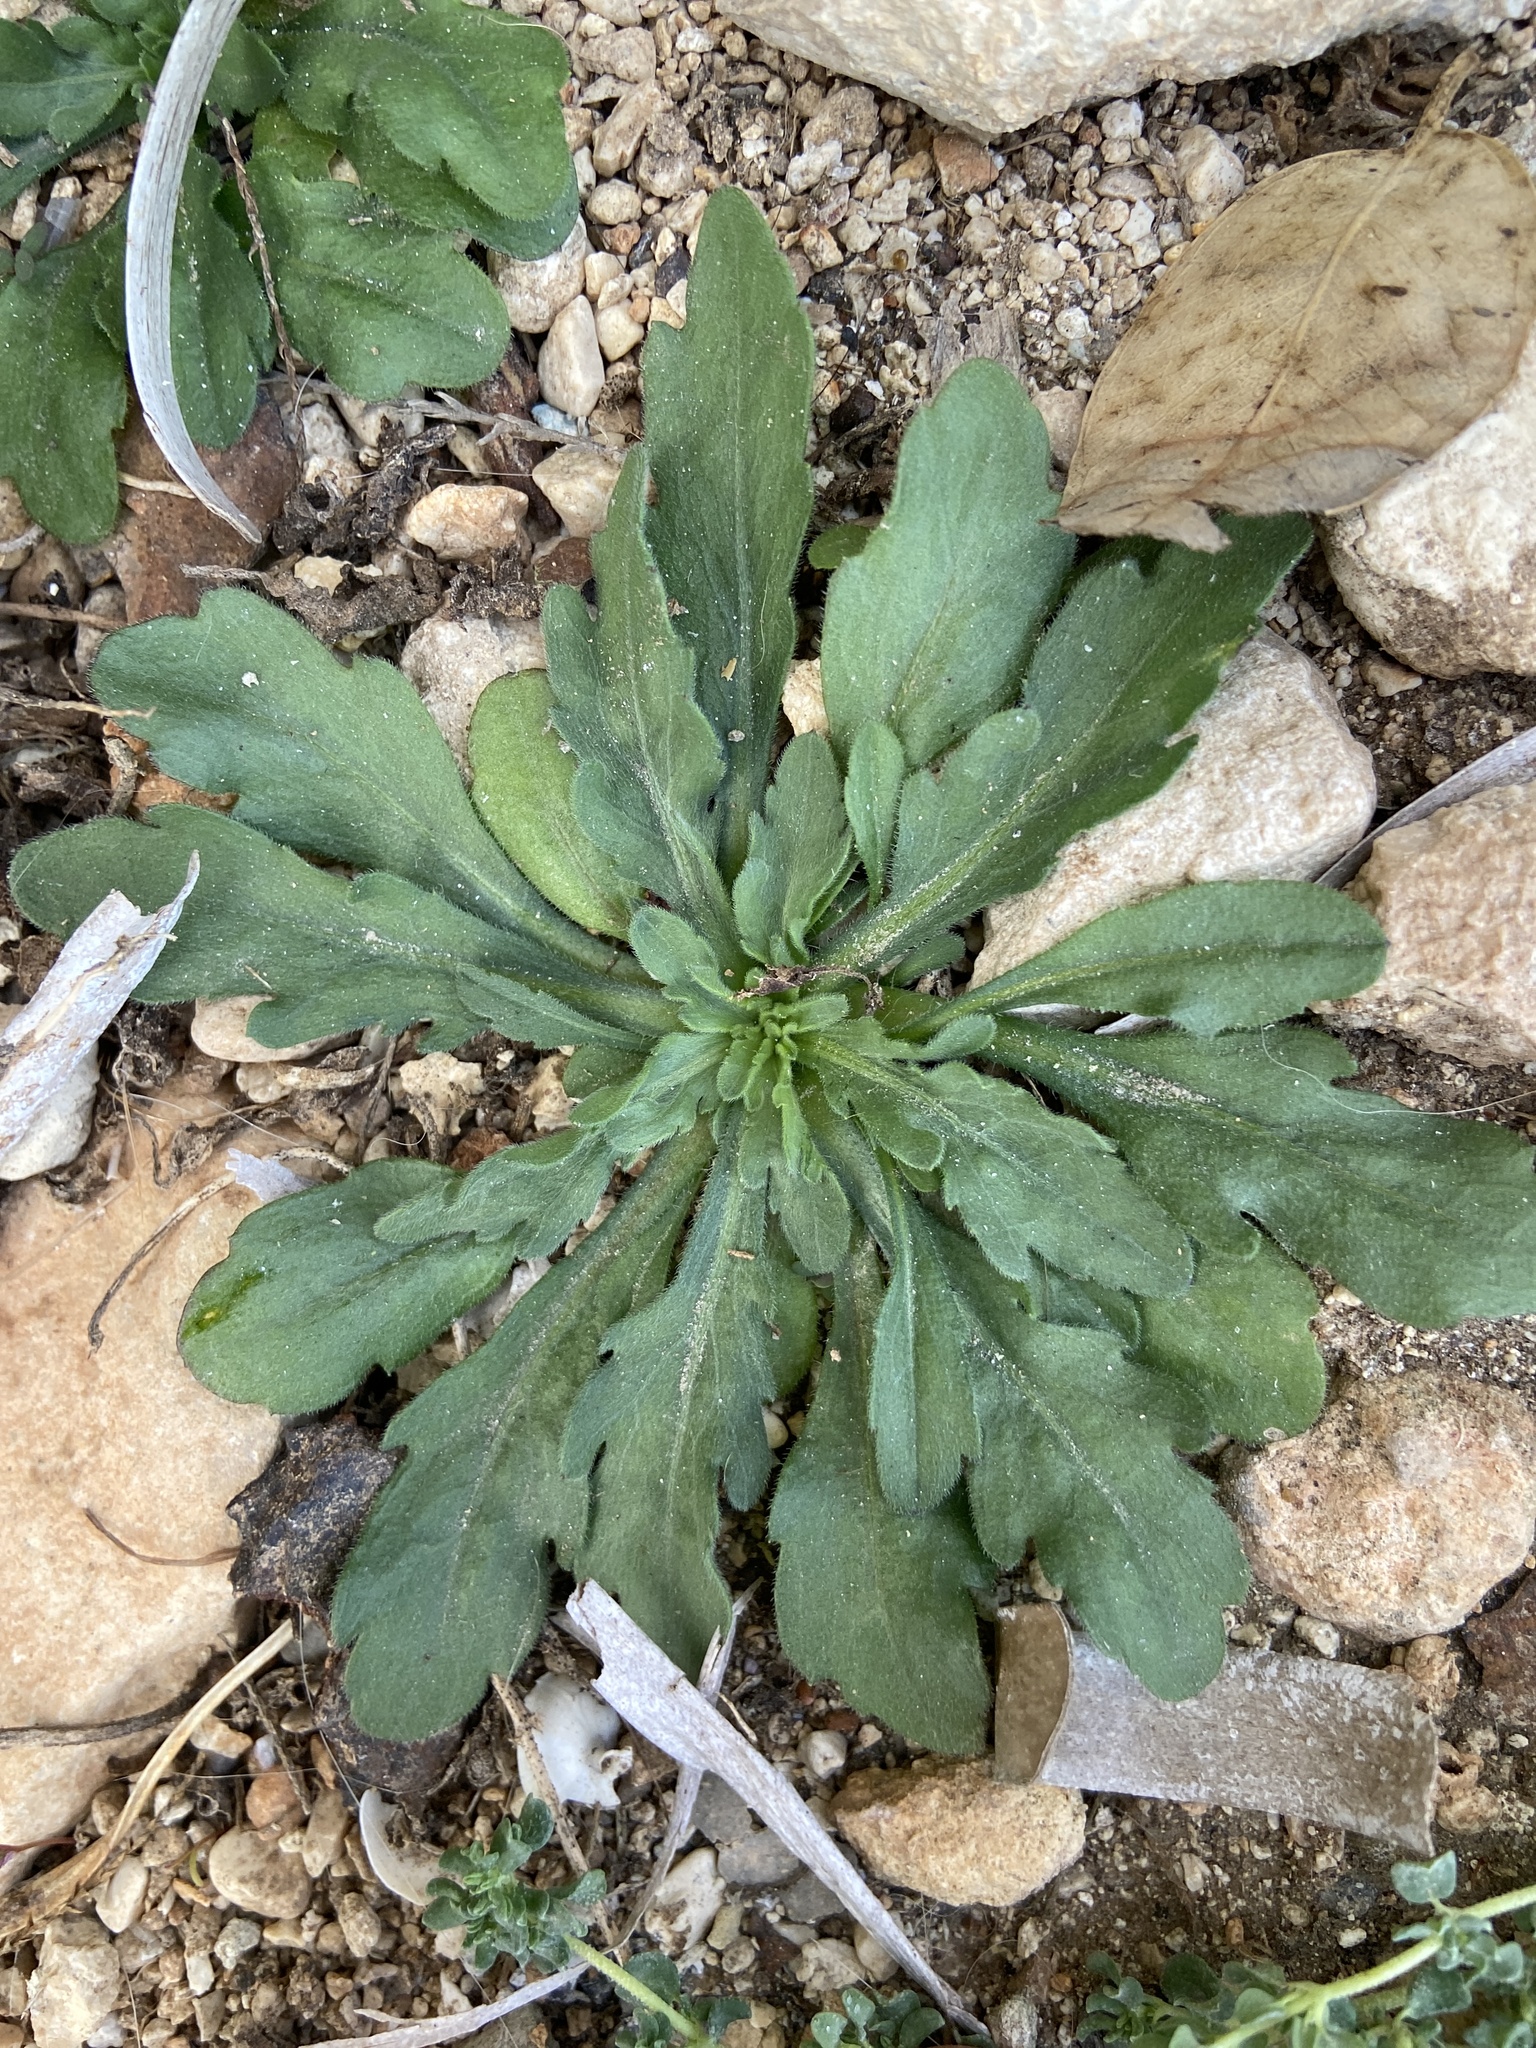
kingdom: Plantae
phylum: Tracheophyta
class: Magnoliopsida
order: Asterales
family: Asteraceae
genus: Erigeron
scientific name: Erigeron bonariensis
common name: Argentine fleabane
